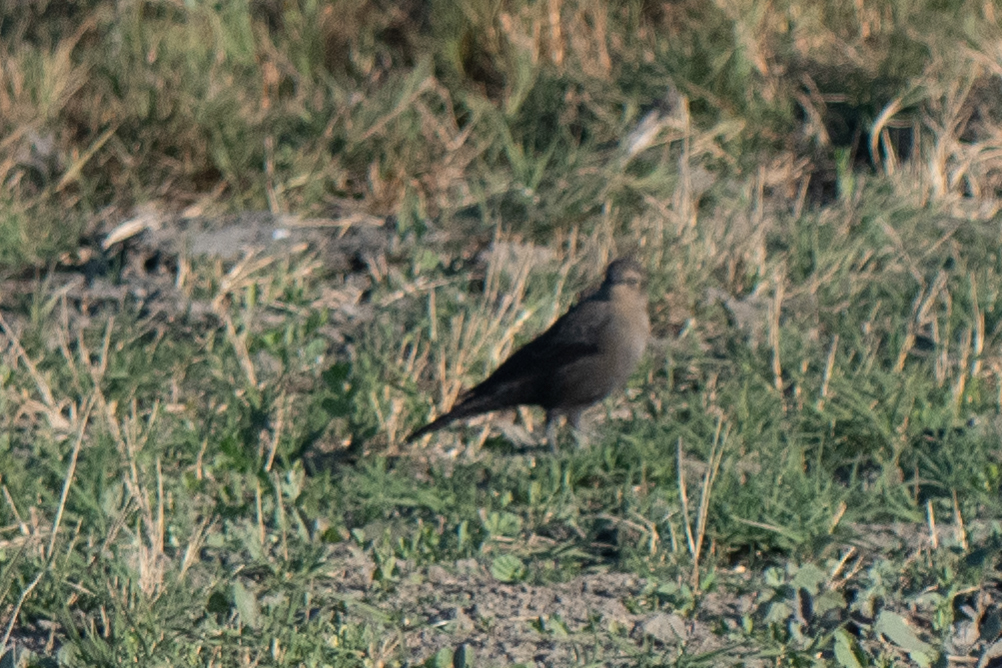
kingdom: Animalia
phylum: Chordata
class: Aves
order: Passeriformes
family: Icteridae
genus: Euphagus
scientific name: Euphagus cyanocephalus
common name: Brewer's blackbird
